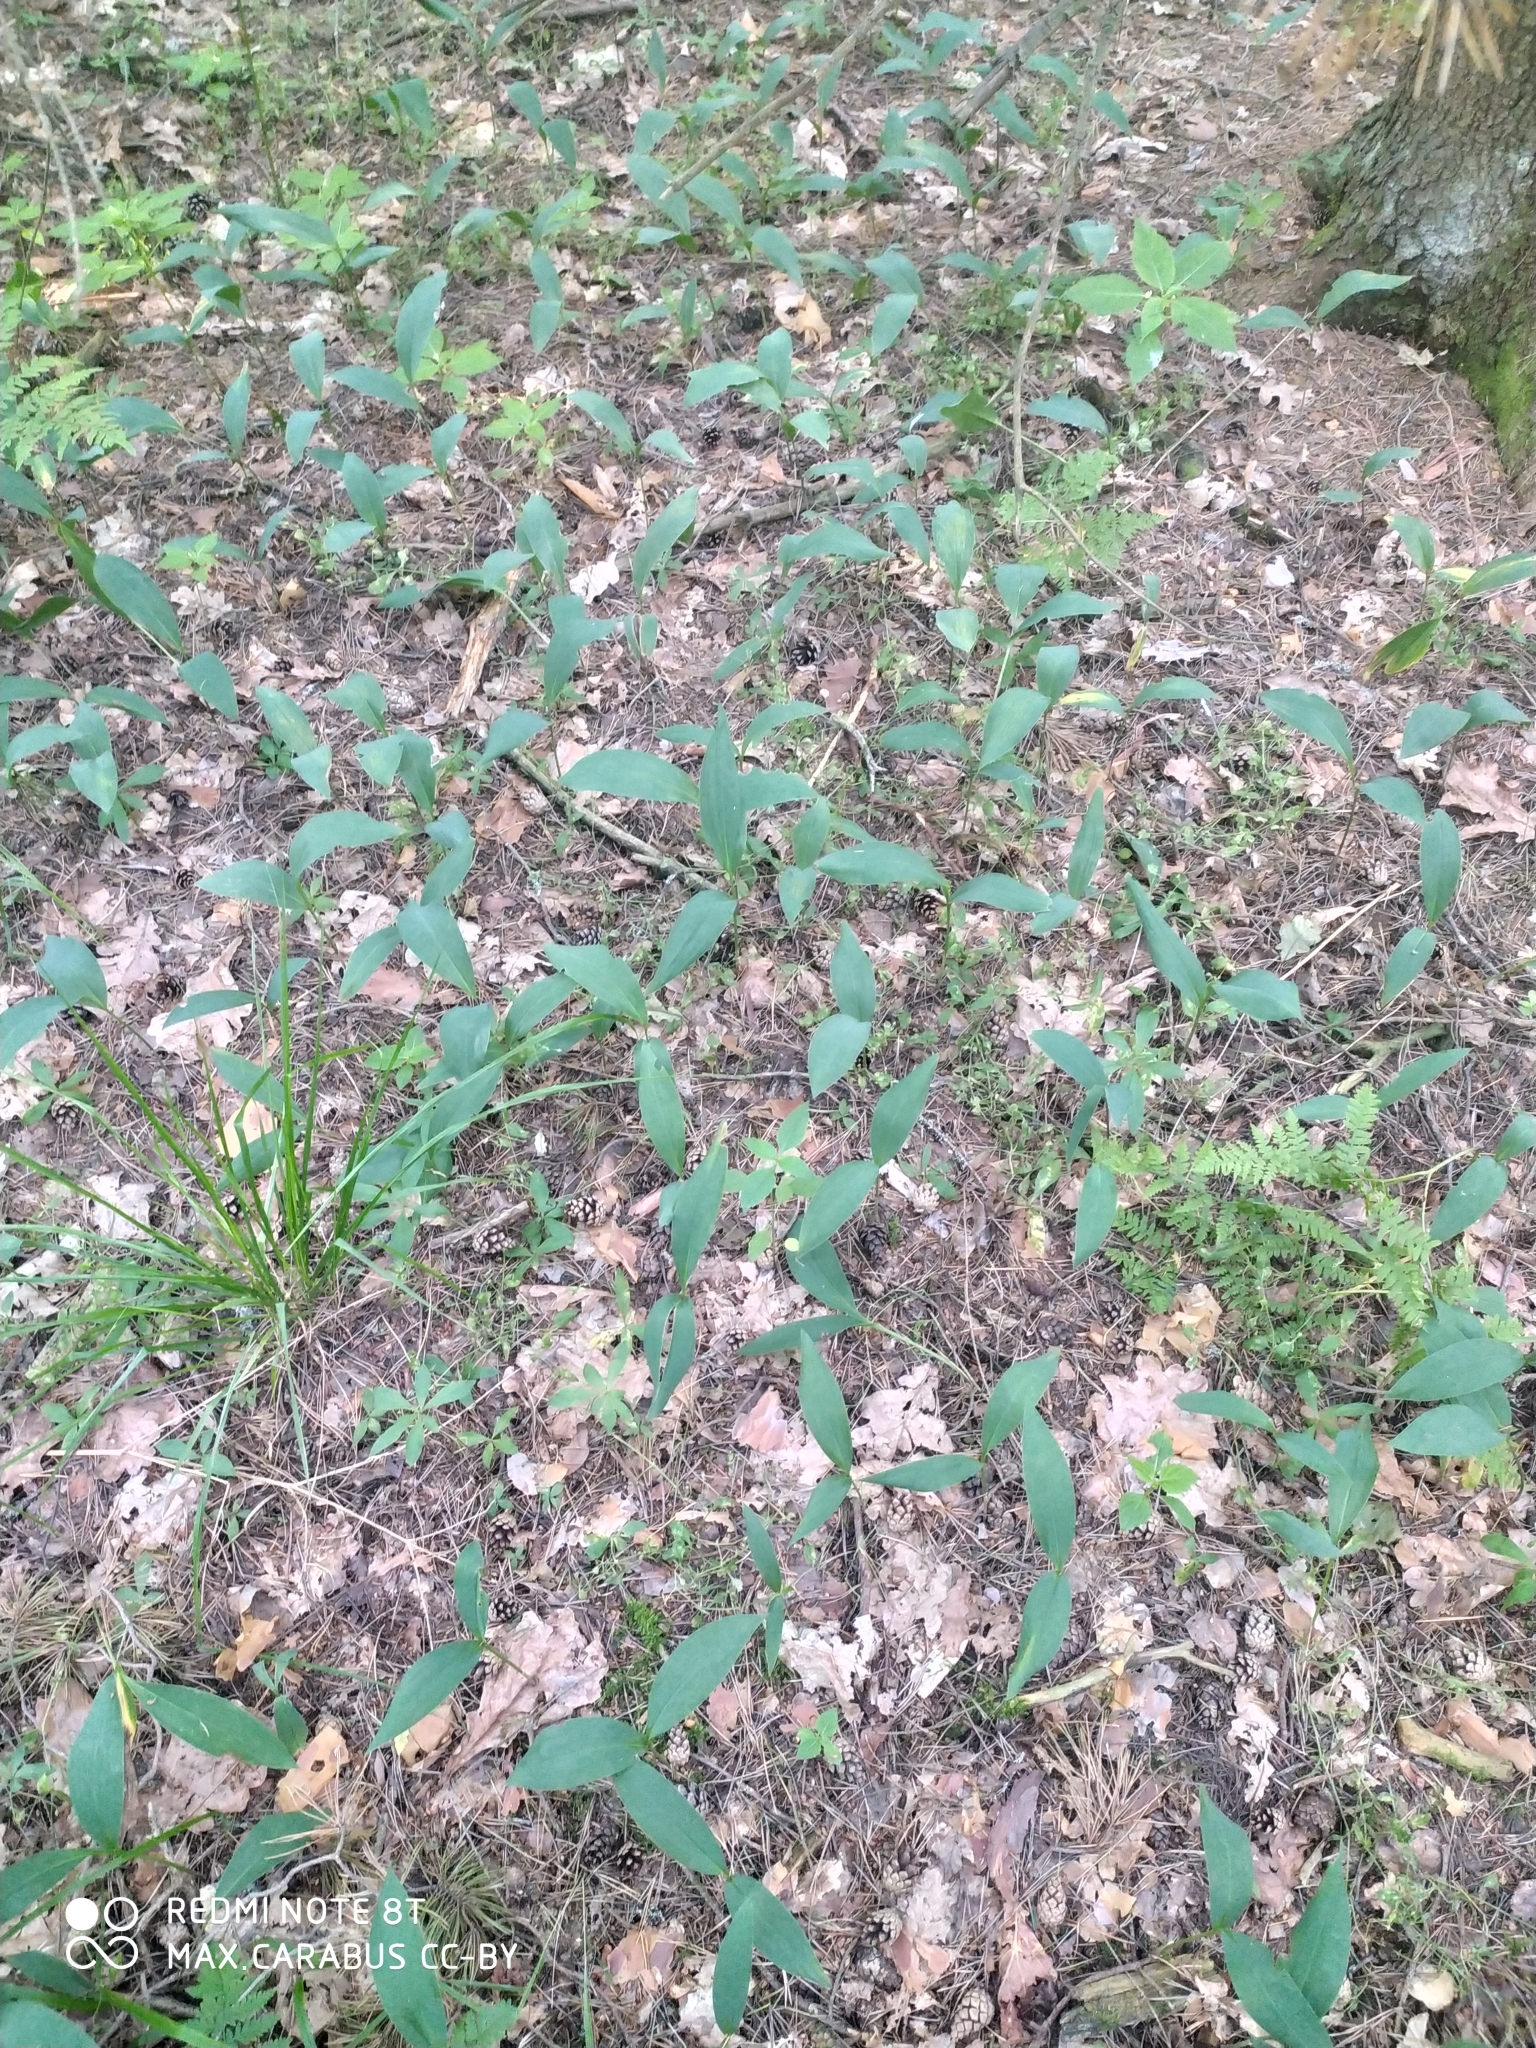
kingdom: Plantae
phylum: Tracheophyta
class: Liliopsida
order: Asparagales
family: Asparagaceae
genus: Convallaria
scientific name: Convallaria majalis
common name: Lily-of-the-valley
